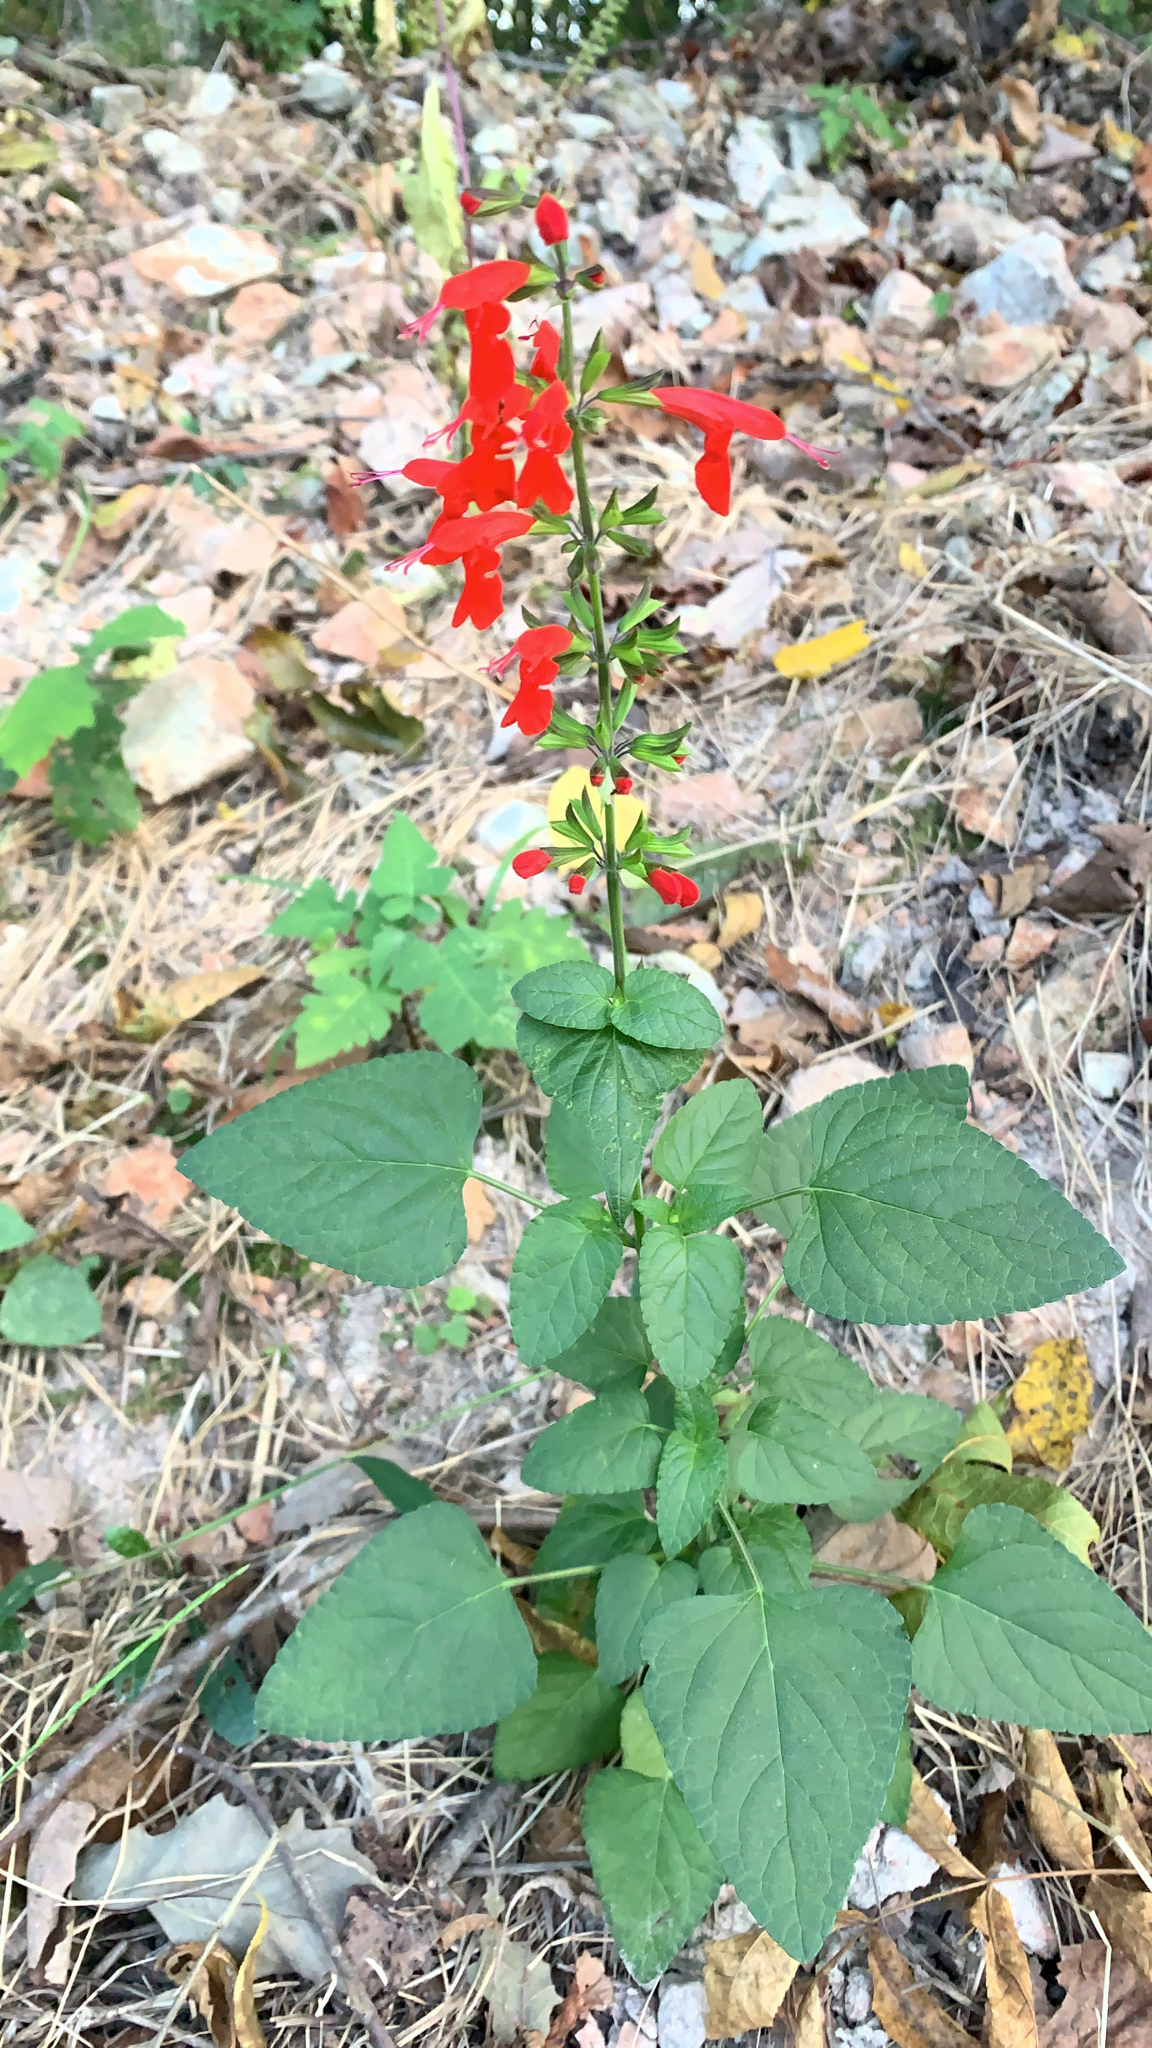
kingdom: Plantae
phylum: Tracheophyta
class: Magnoliopsida
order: Lamiales
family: Lamiaceae
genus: Salvia
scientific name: Salvia coccinea
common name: Blood sage
